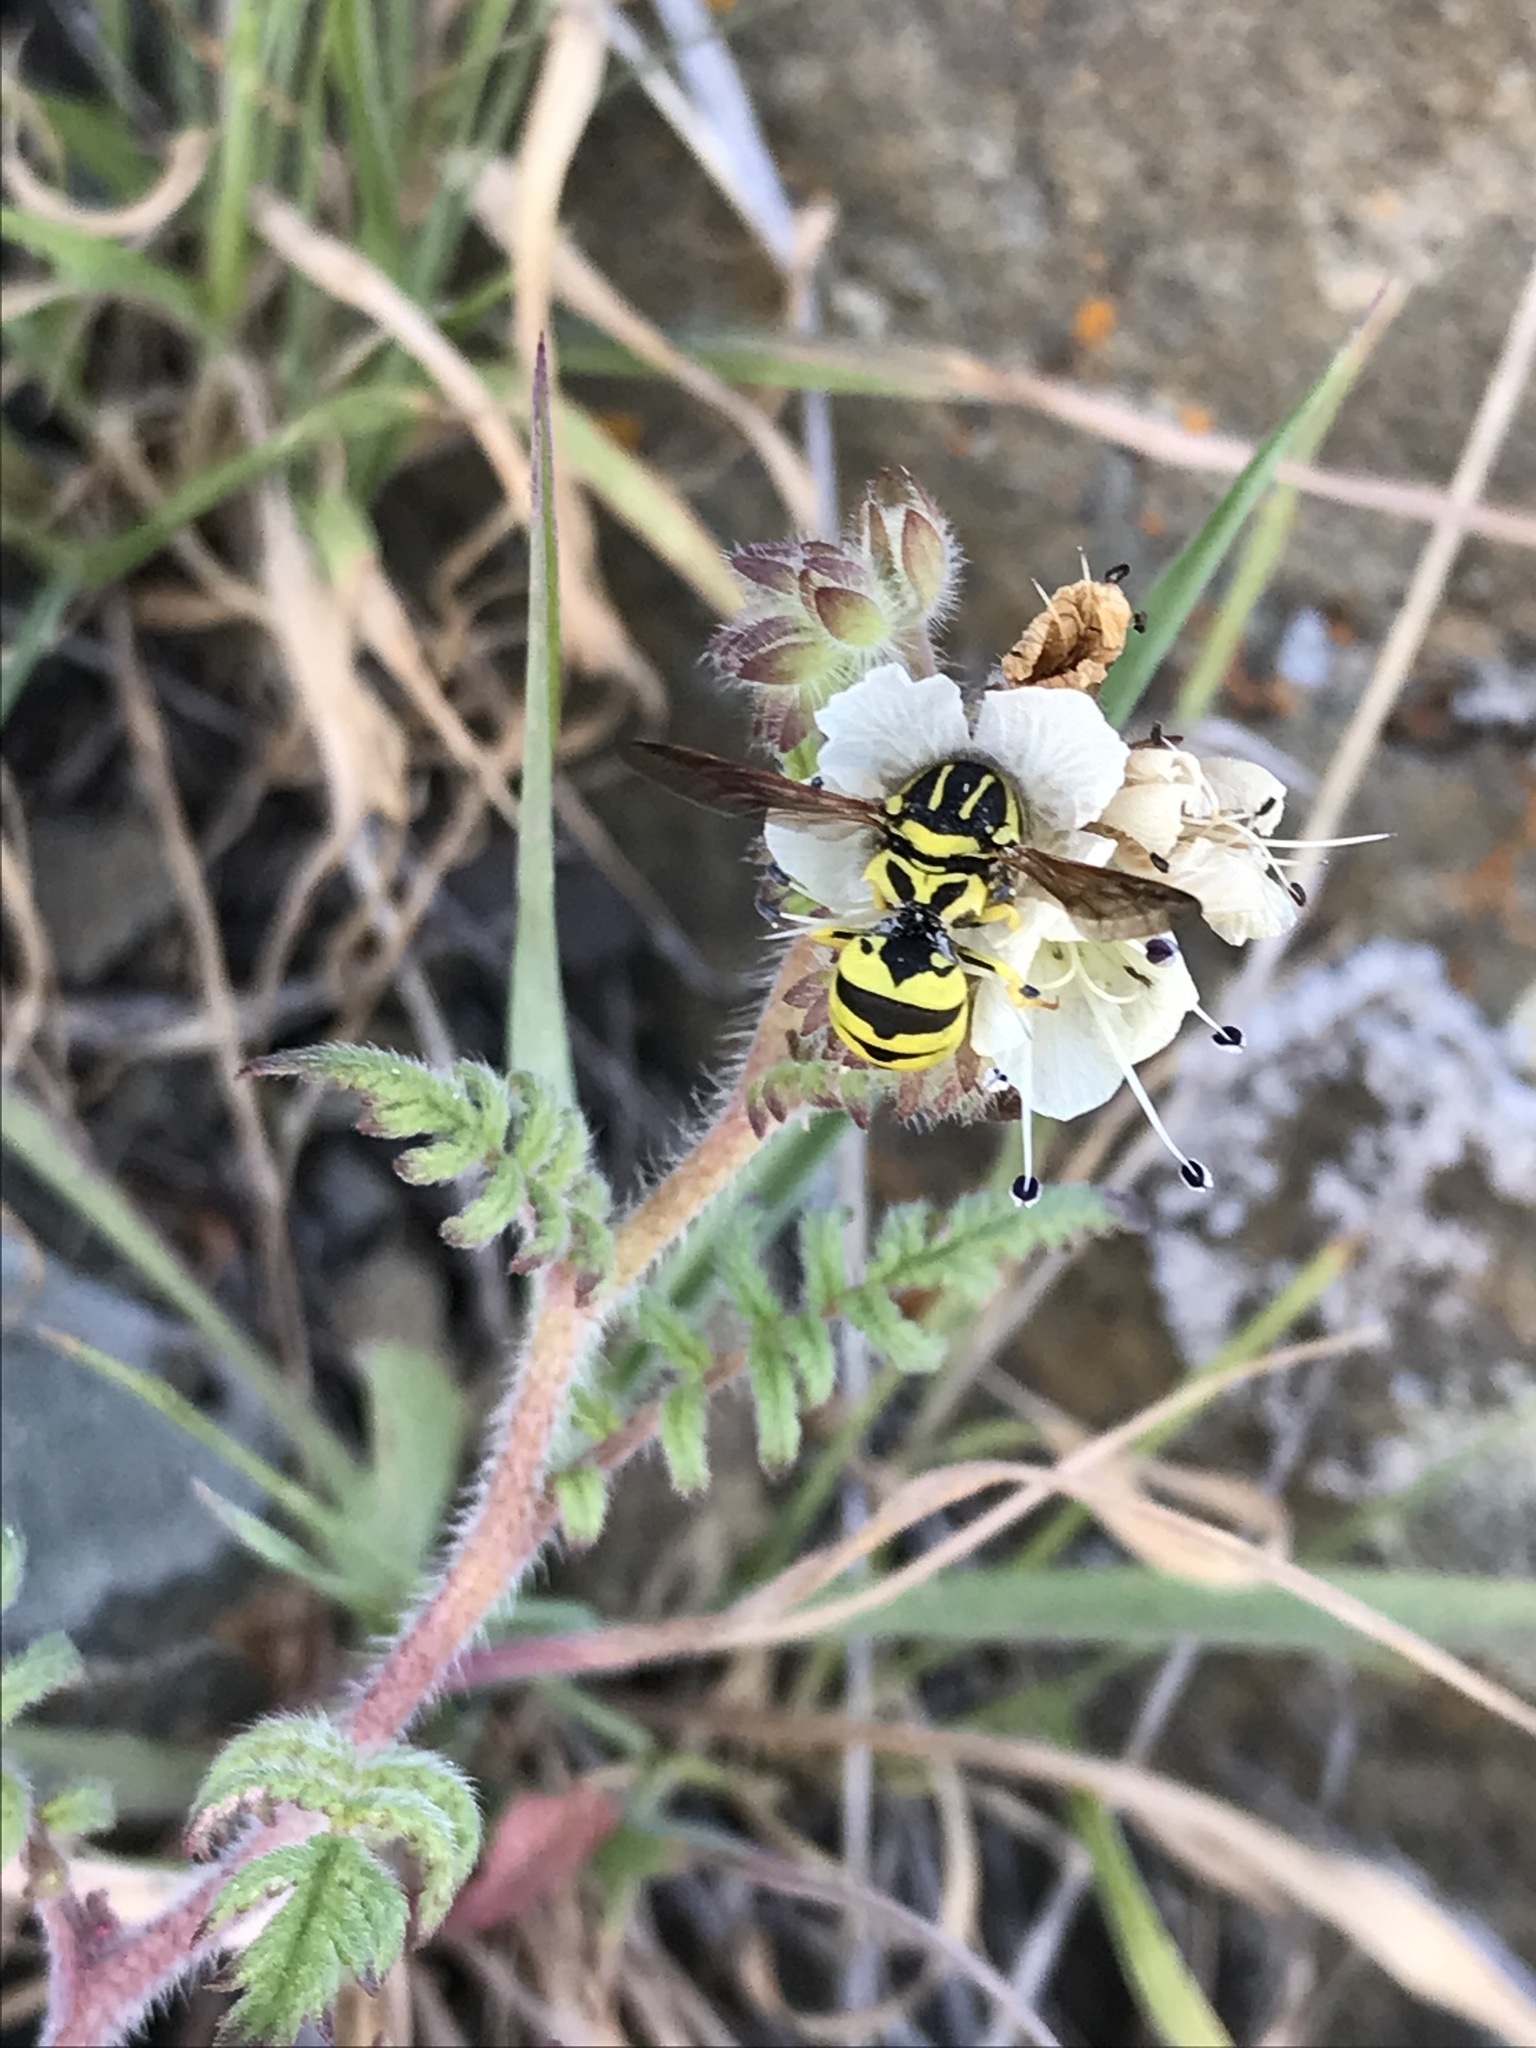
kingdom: Animalia
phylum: Arthropoda
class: Insecta
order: Hymenoptera
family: Masaridae
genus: Pseudomasaris
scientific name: Pseudomasaris coquilletti
